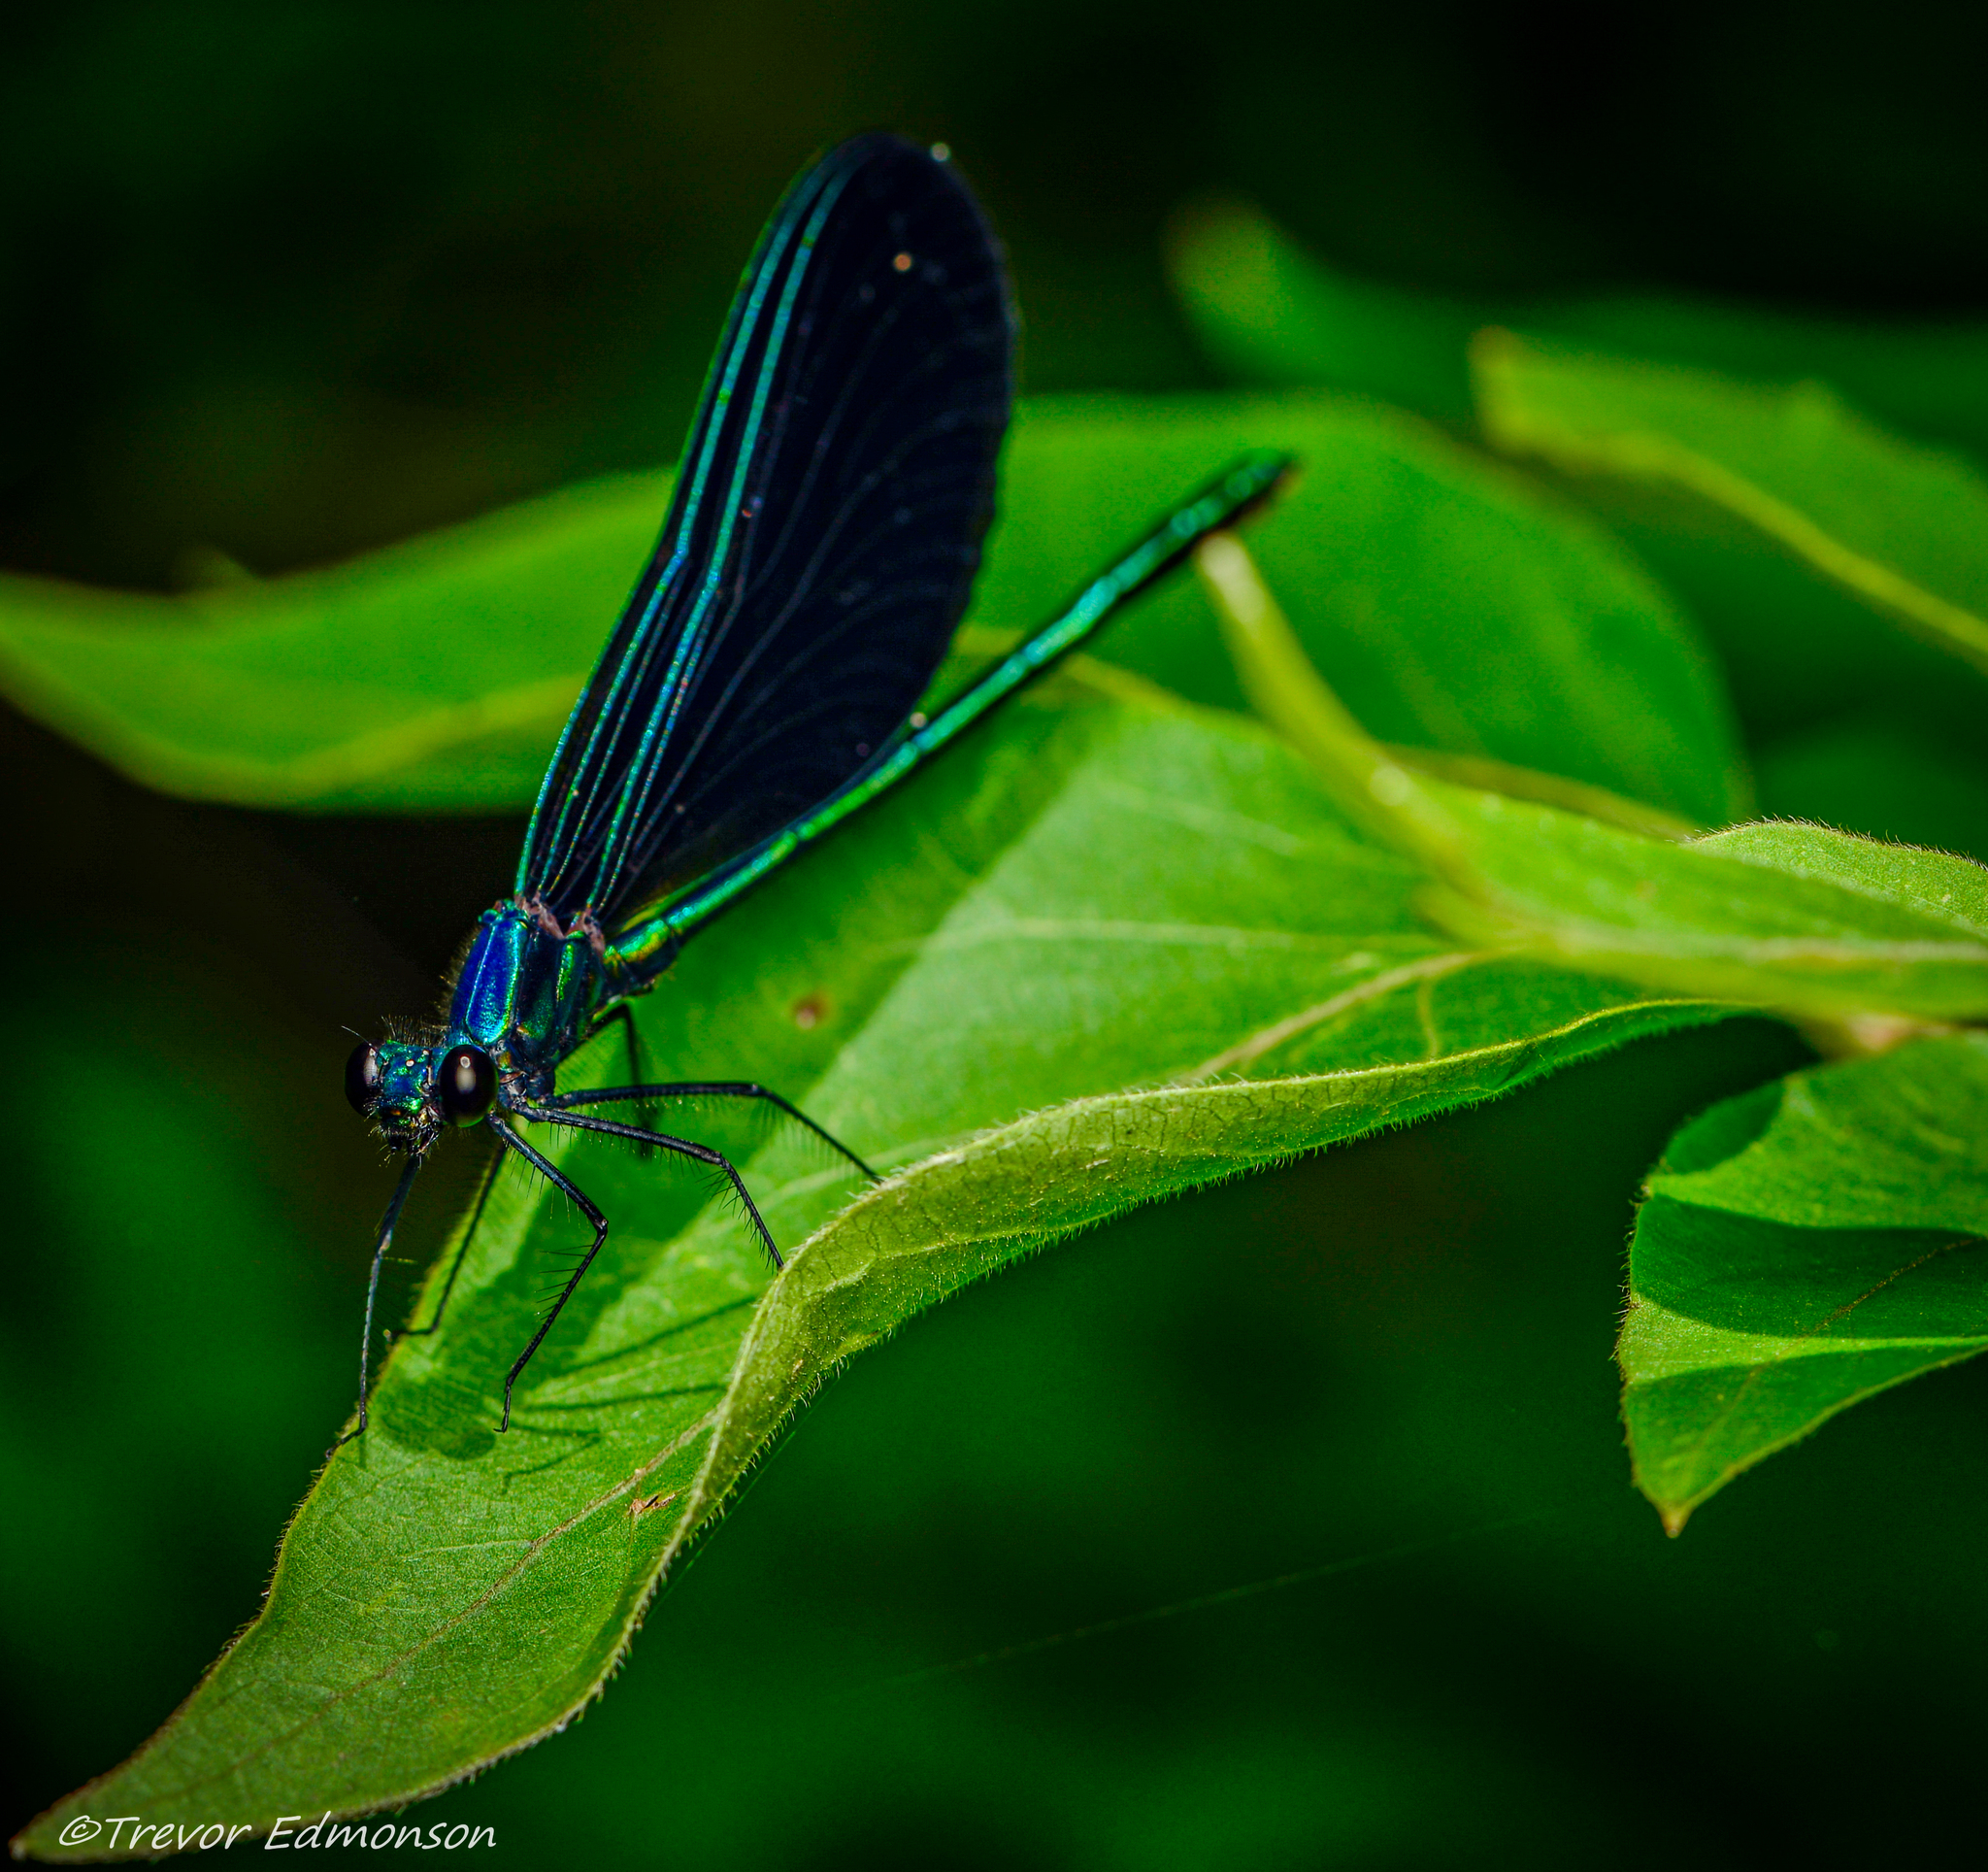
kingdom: Animalia
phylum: Arthropoda
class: Insecta
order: Odonata
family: Calopterygidae
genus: Calopteryx
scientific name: Calopteryx maculata
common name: Ebony jewelwing
